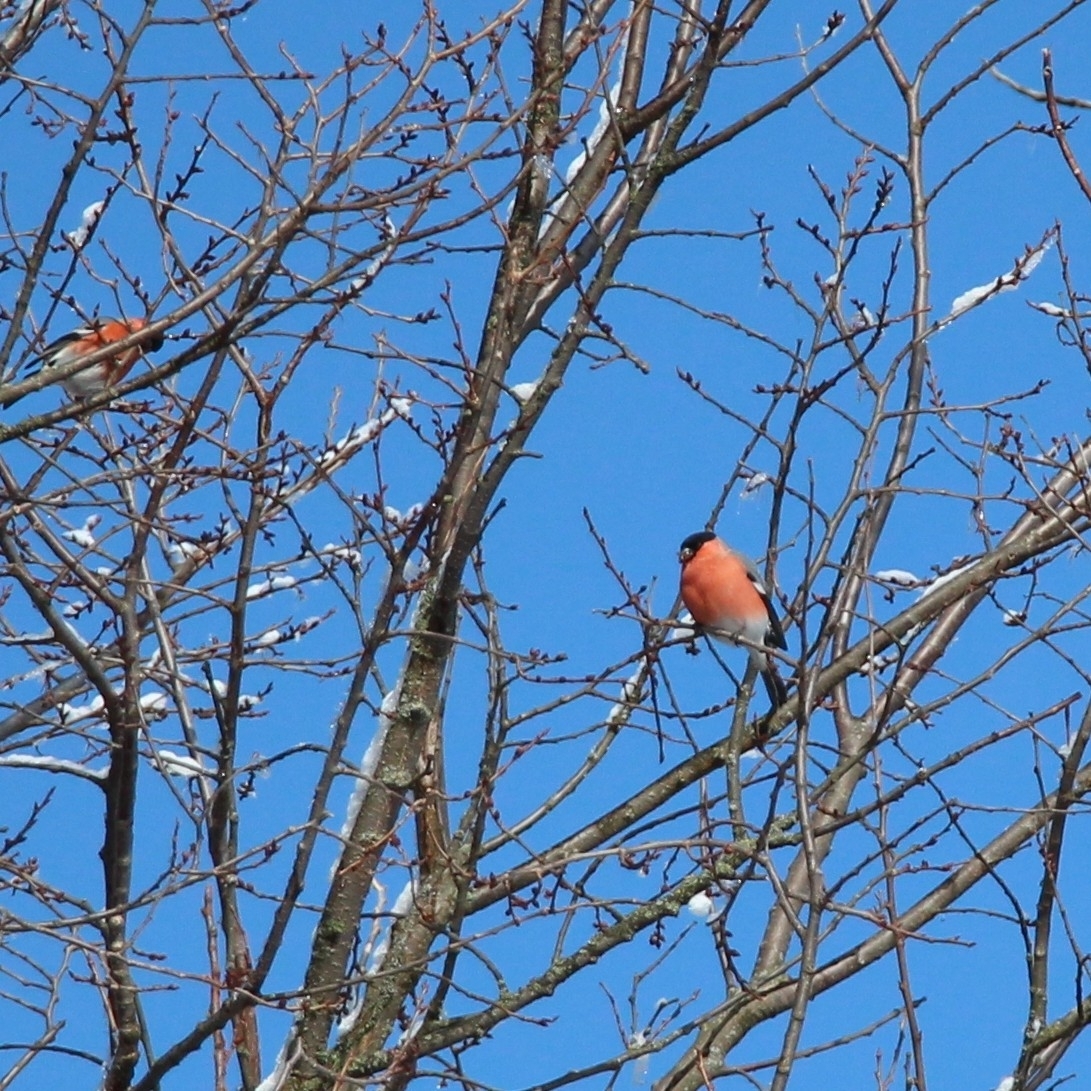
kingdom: Animalia
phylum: Chordata
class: Aves
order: Passeriformes
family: Fringillidae
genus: Pyrrhula
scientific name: Pyrrhula pyrrhula
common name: Eurasian bullfinch
